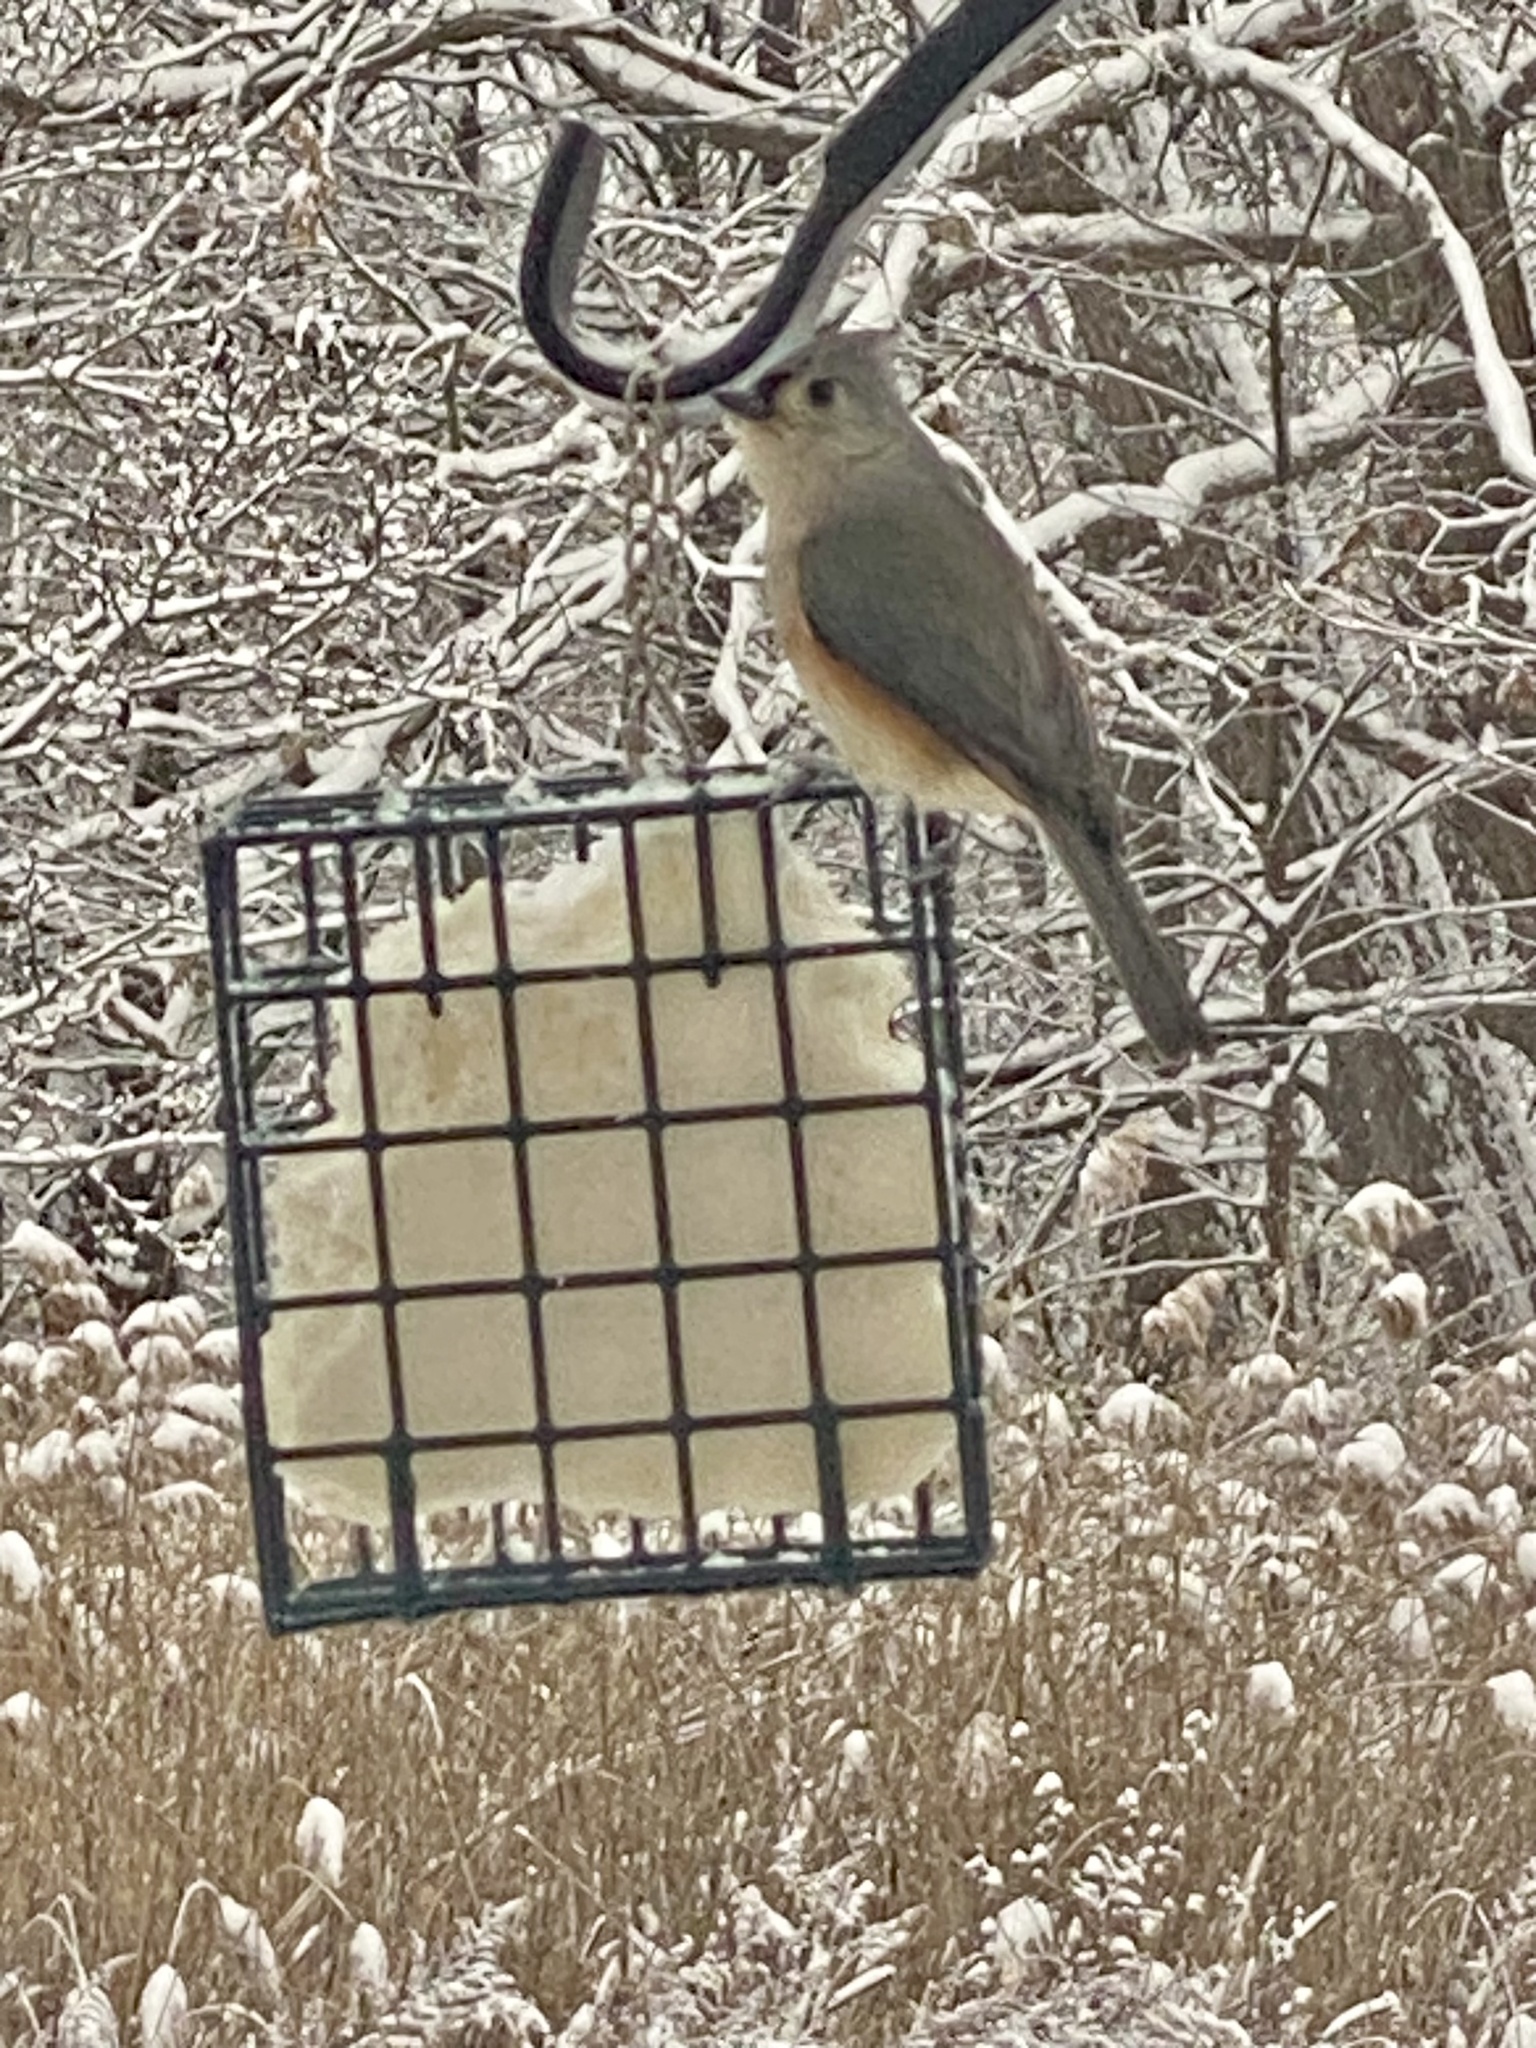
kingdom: Animalia
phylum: Chordata
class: Aves
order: Passeriformes
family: Paridae
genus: Baeolophus
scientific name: Baeolophus bicolor
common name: Tufted titmouse
